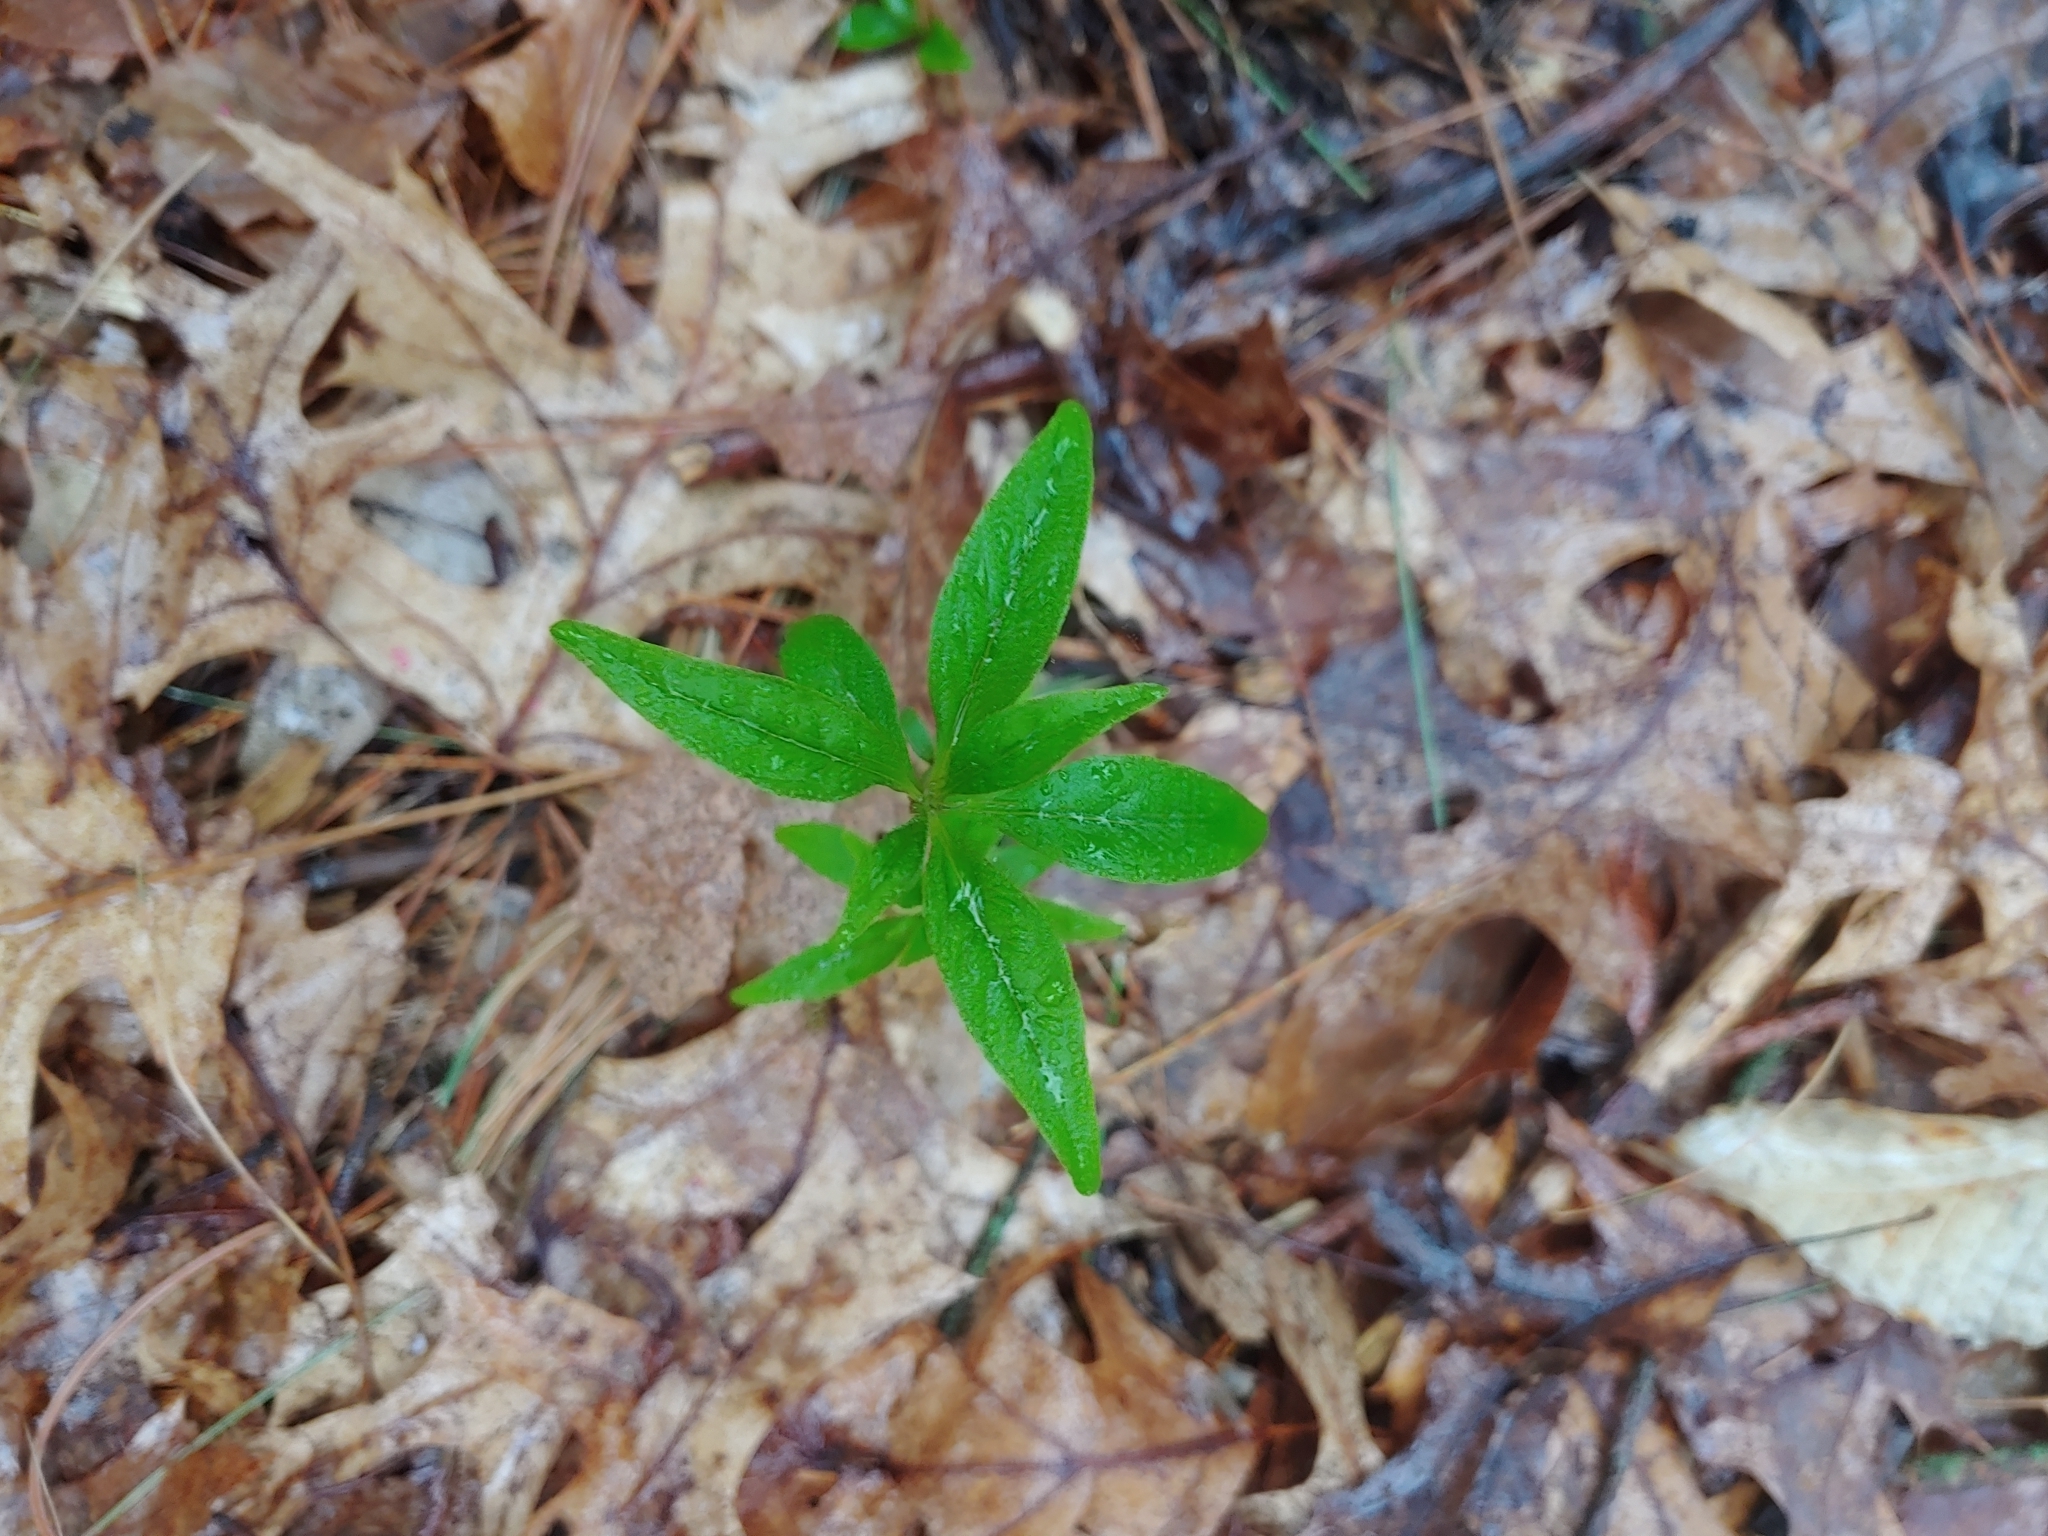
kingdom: Plantae
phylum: Tracheophyta
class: Magnoliopsida
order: Ericales
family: Primulaceae
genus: Lysimachia
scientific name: Lysimachia borealis
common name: American starflower
